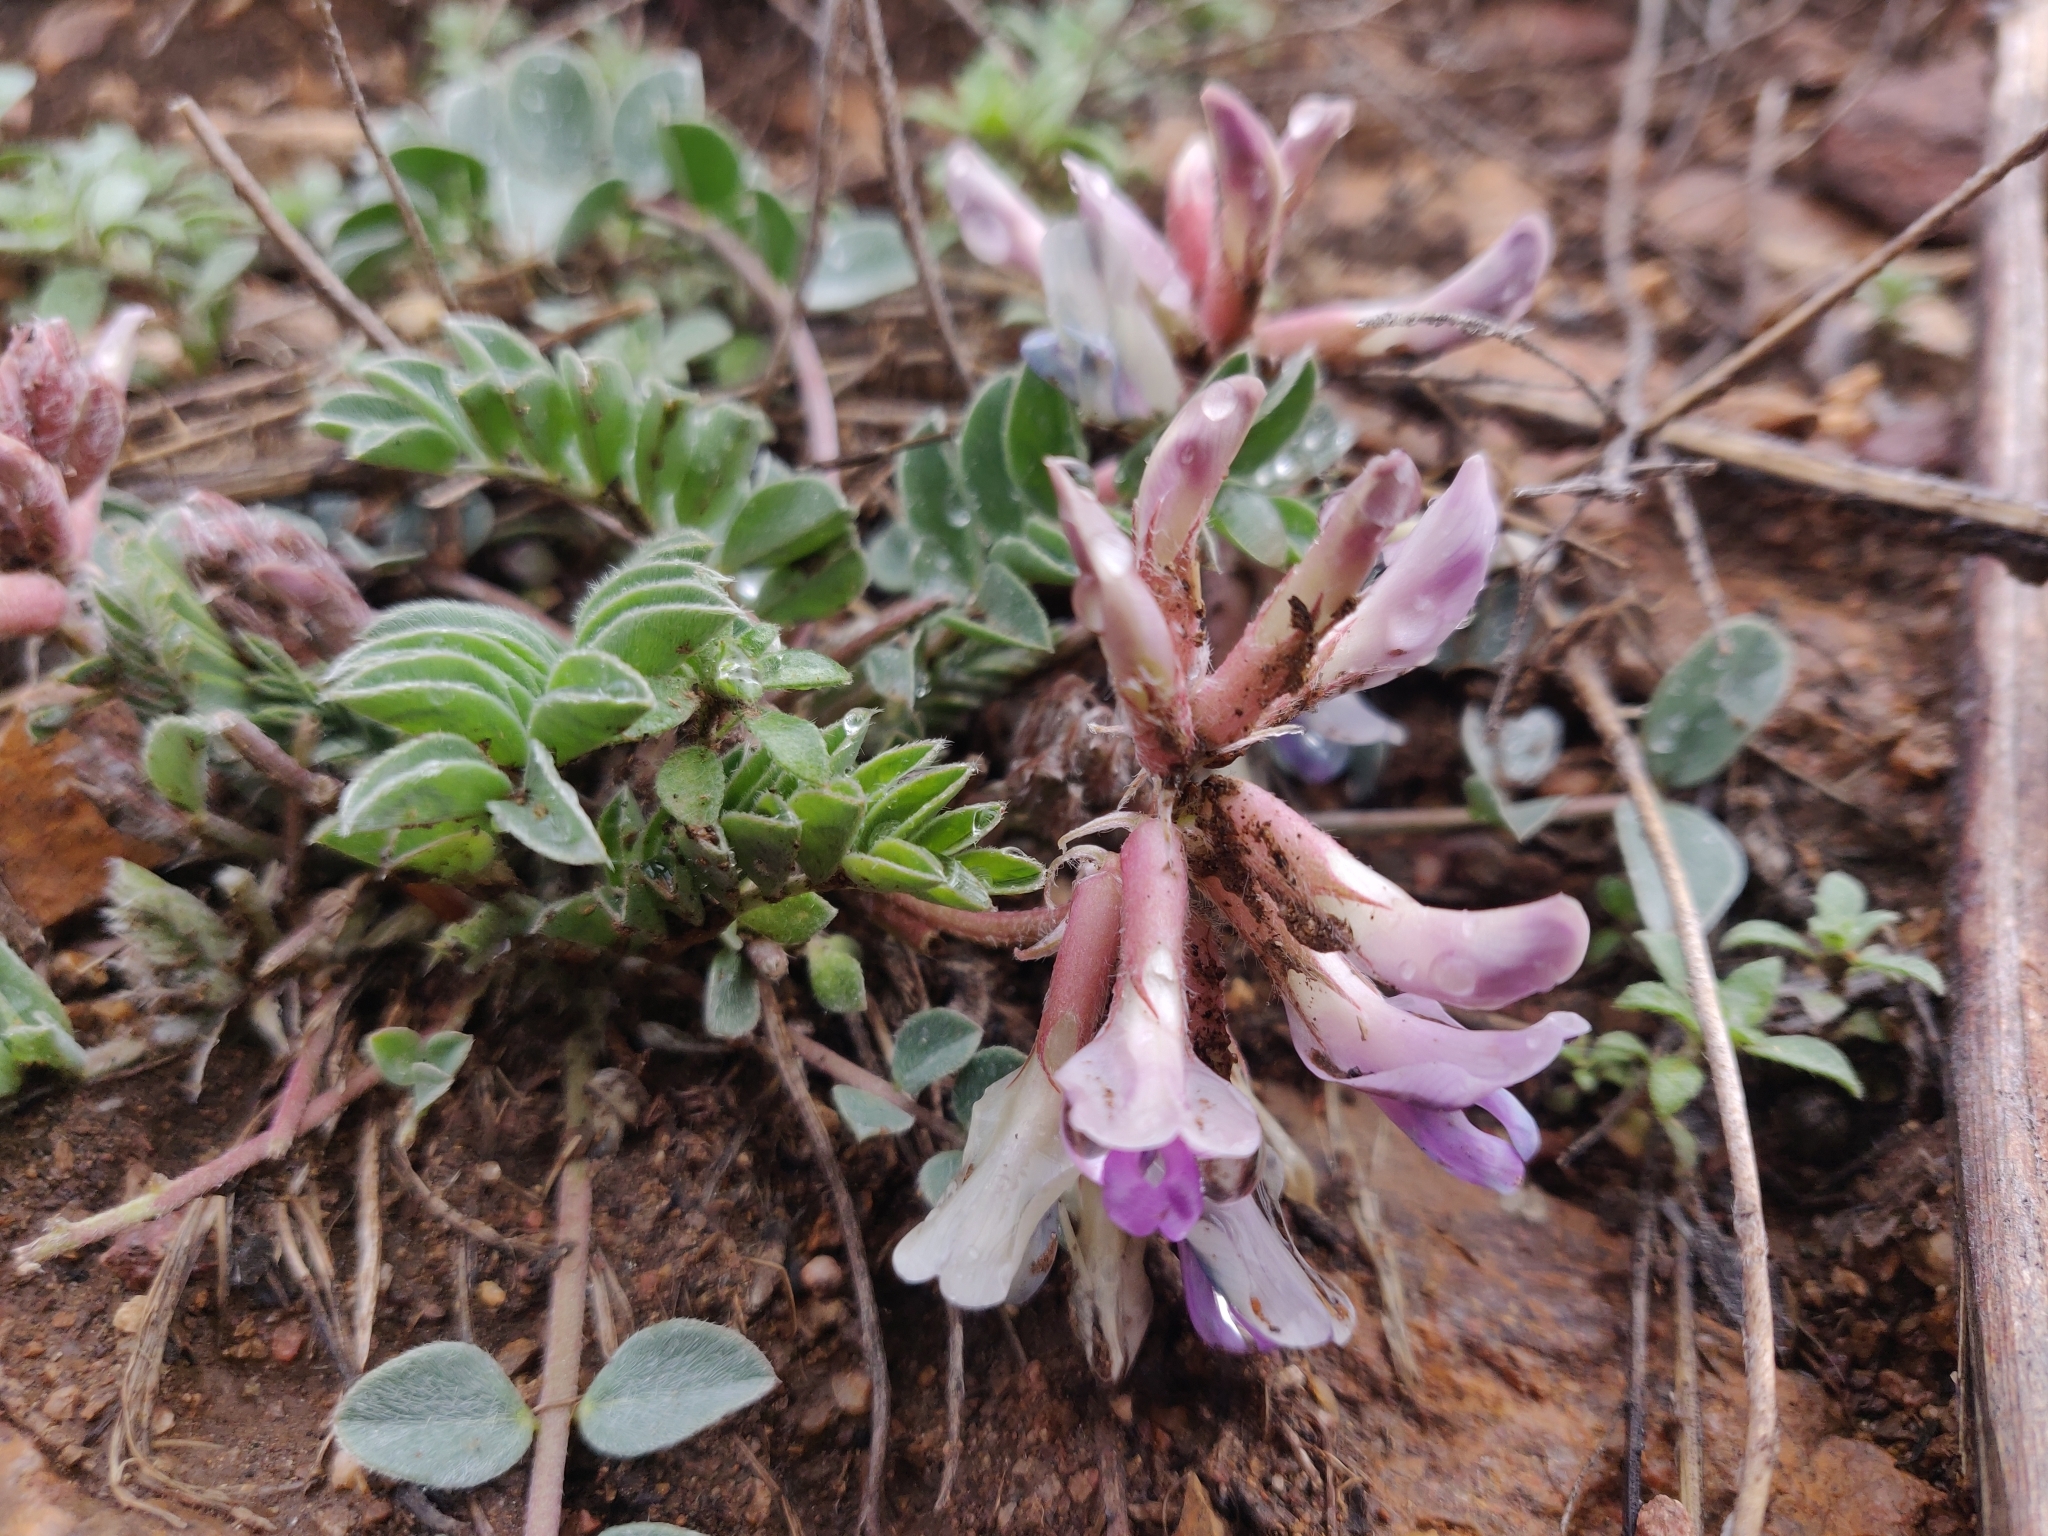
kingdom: Plantae
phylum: Tracheophyta
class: Magnoliopsida
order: Fabales
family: Fabaceae
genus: Astragalus
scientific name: Astragalus shortianus
